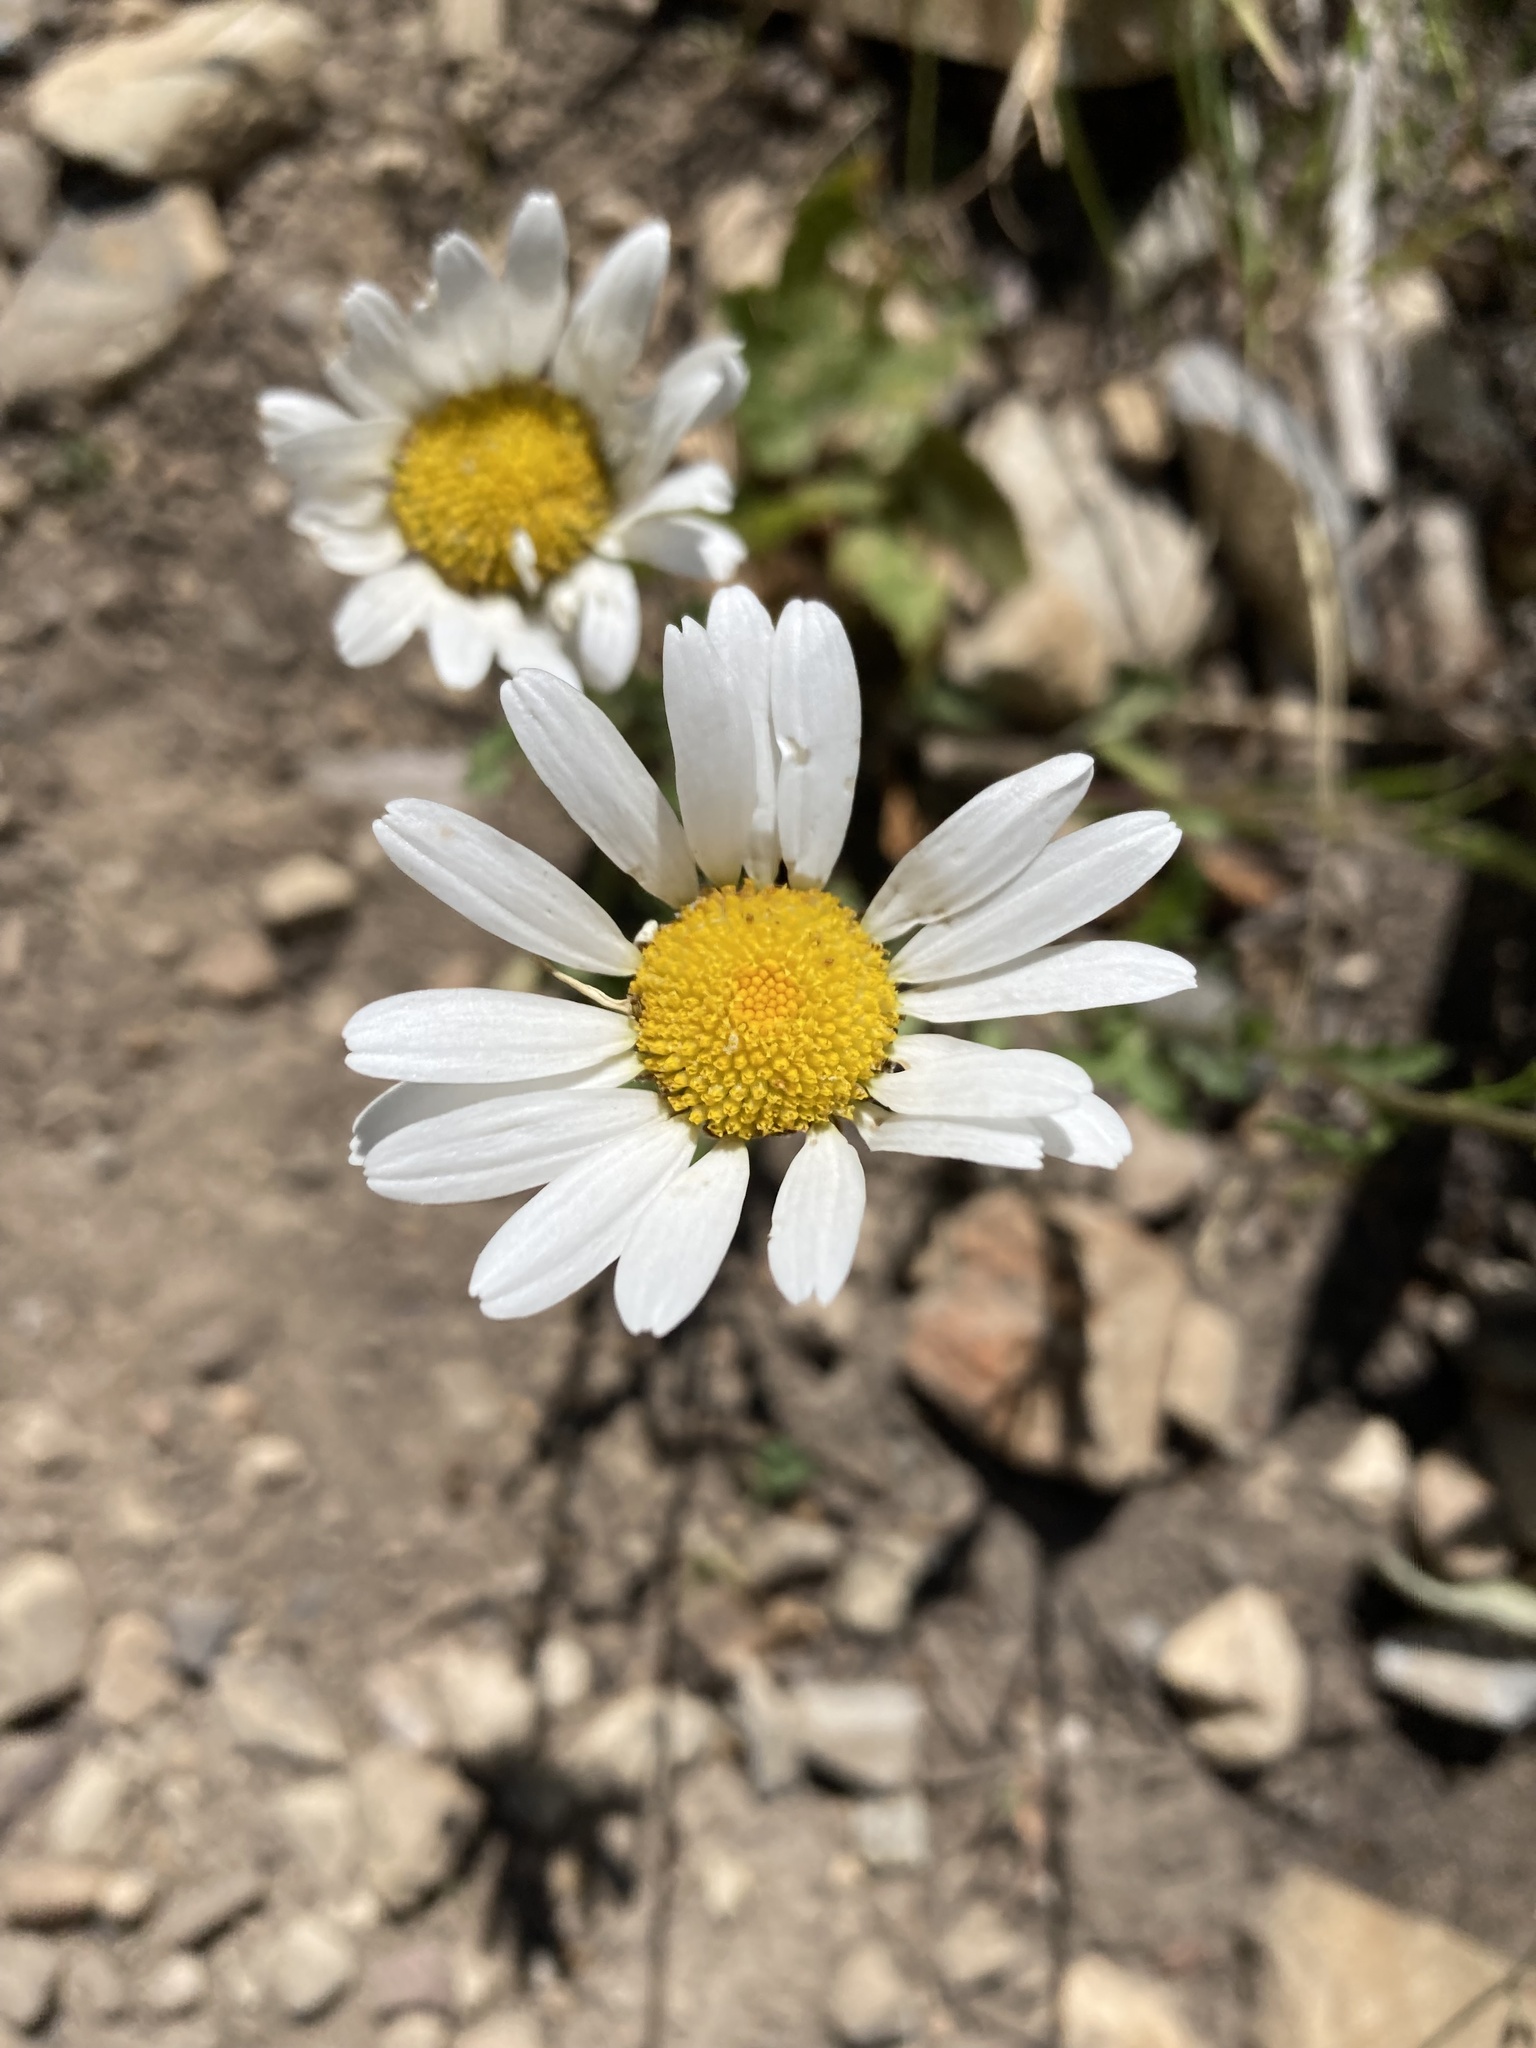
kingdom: Plantae
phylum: Tracheophyta
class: Magnoliopsida
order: Asterales
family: Asteraceae
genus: Leucanthemum
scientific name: Leucanthemum vulgare
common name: Oxeye daisy
